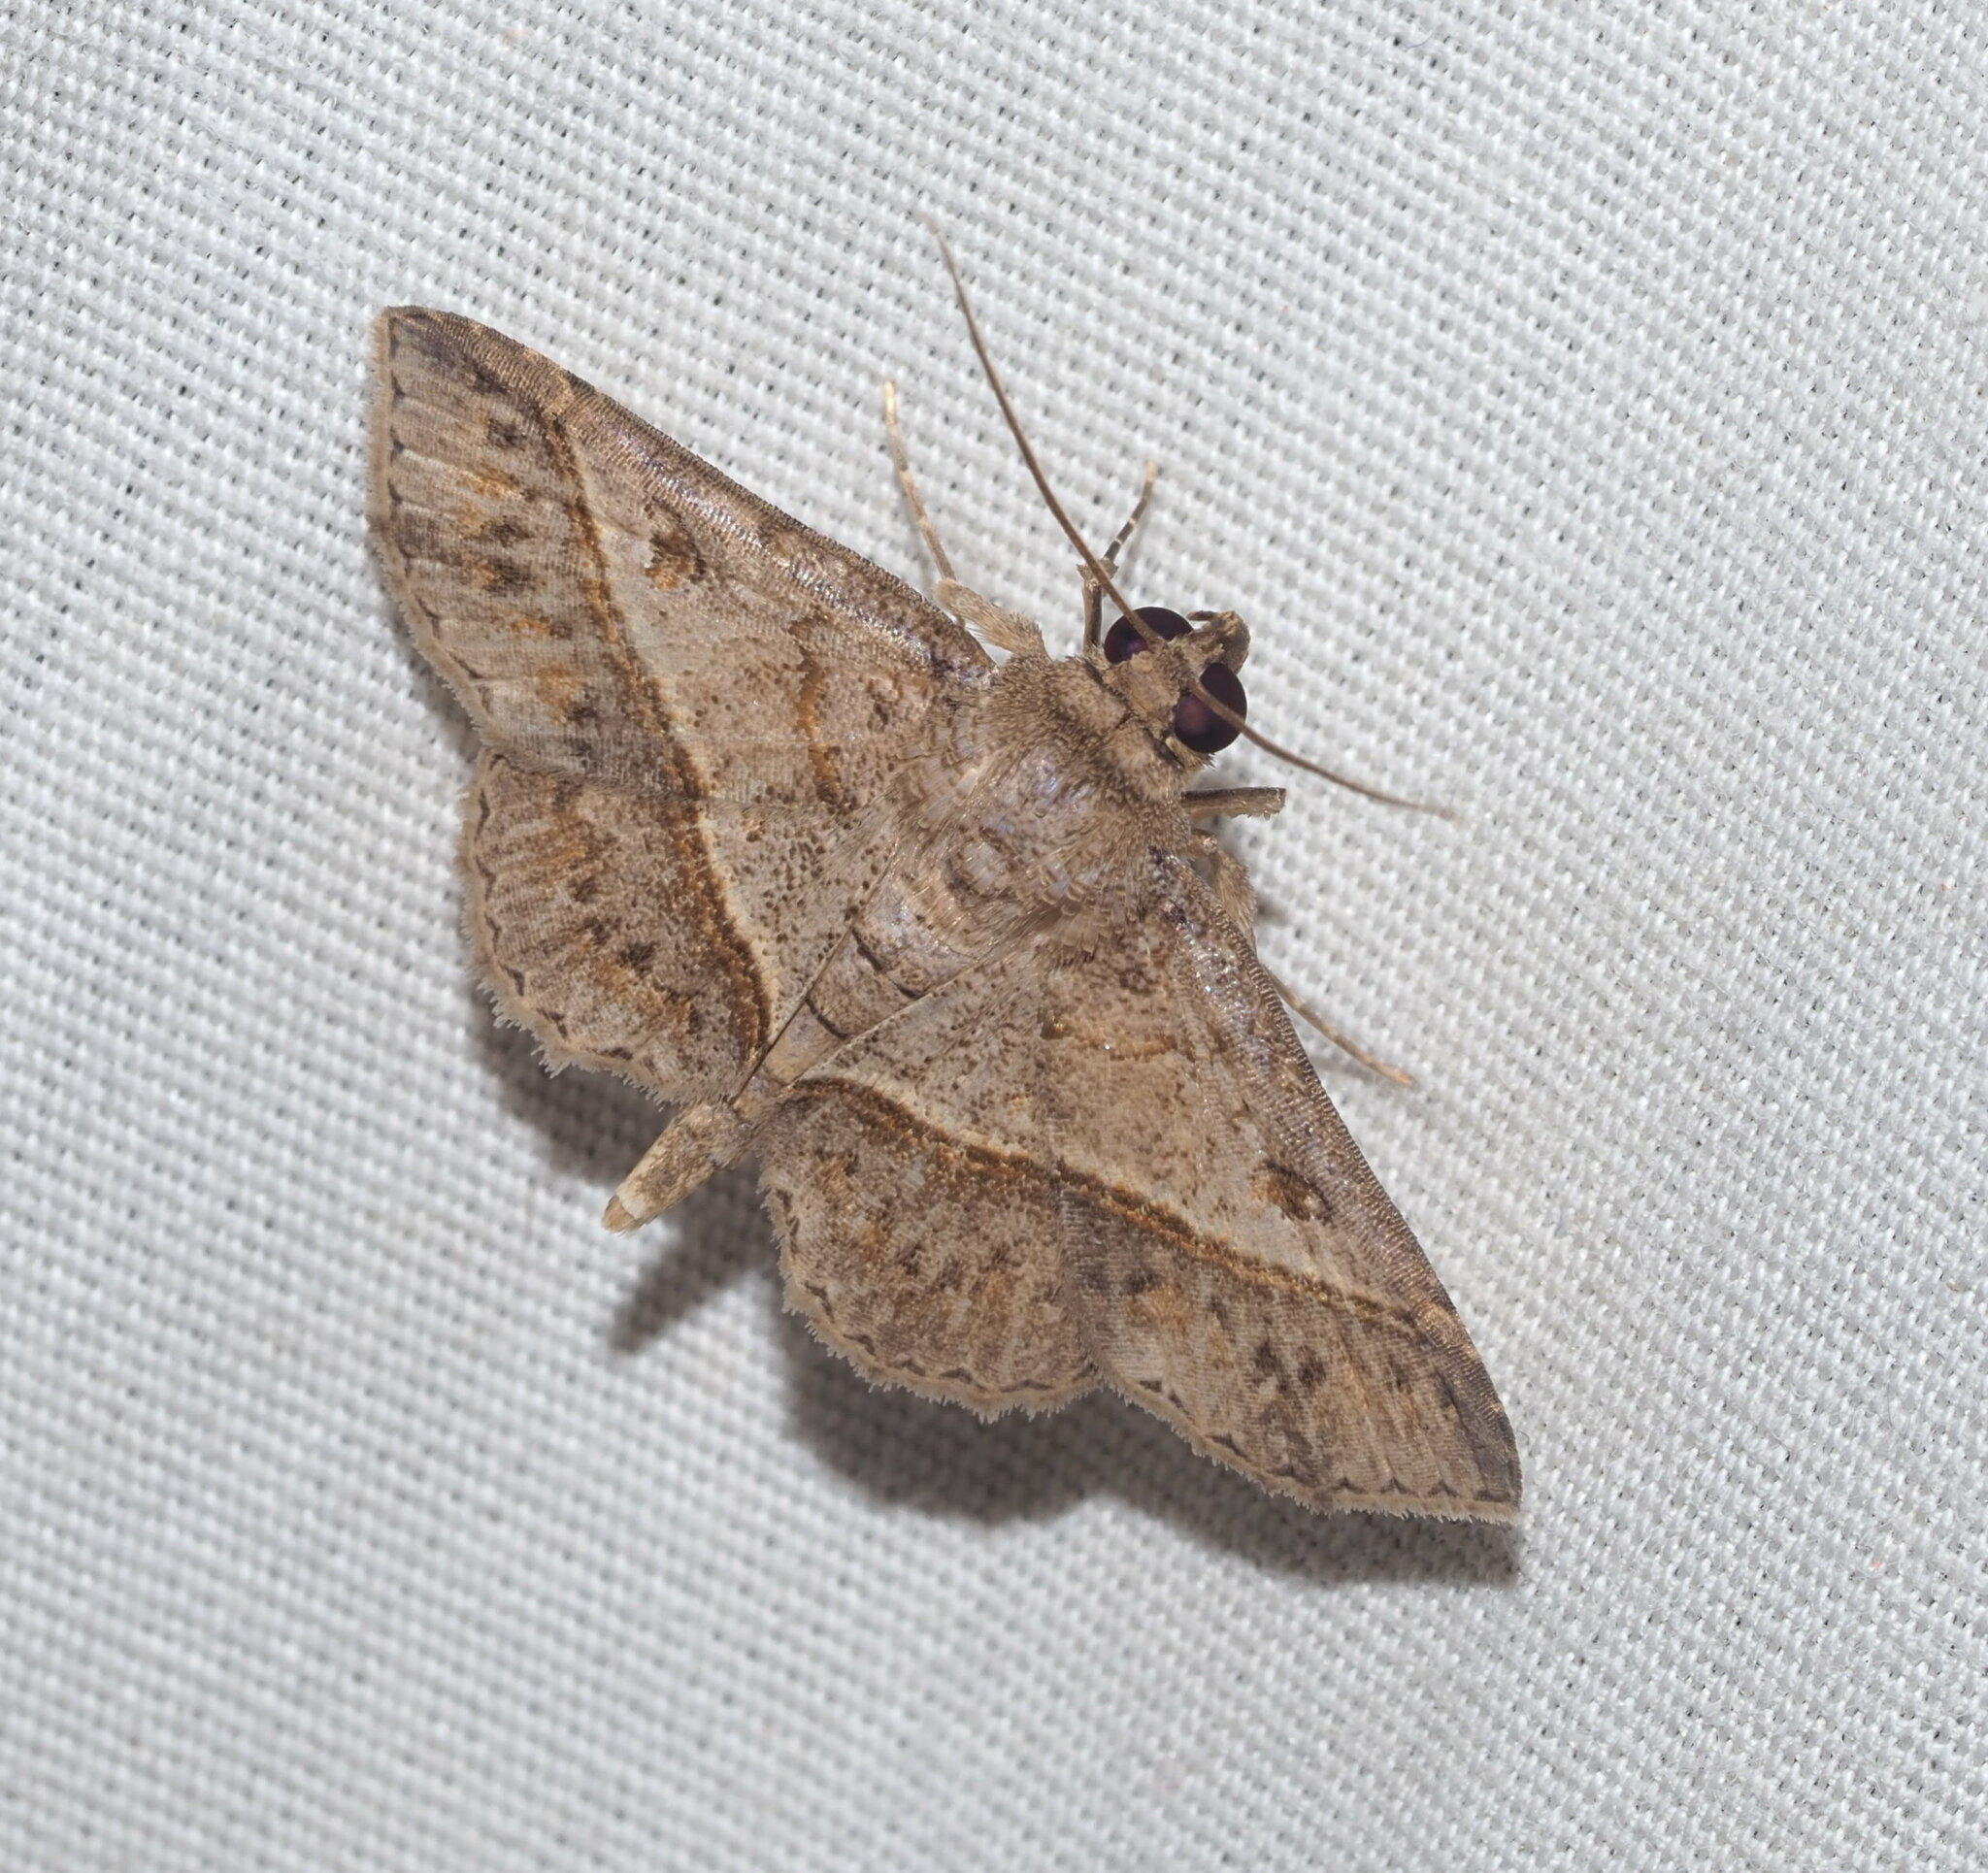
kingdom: Animalia
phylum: Arthropoda
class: Insecta
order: Lepidoptera
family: Erebidae
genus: Antiblemma
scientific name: Antiblemma acclinalis
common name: Moth
